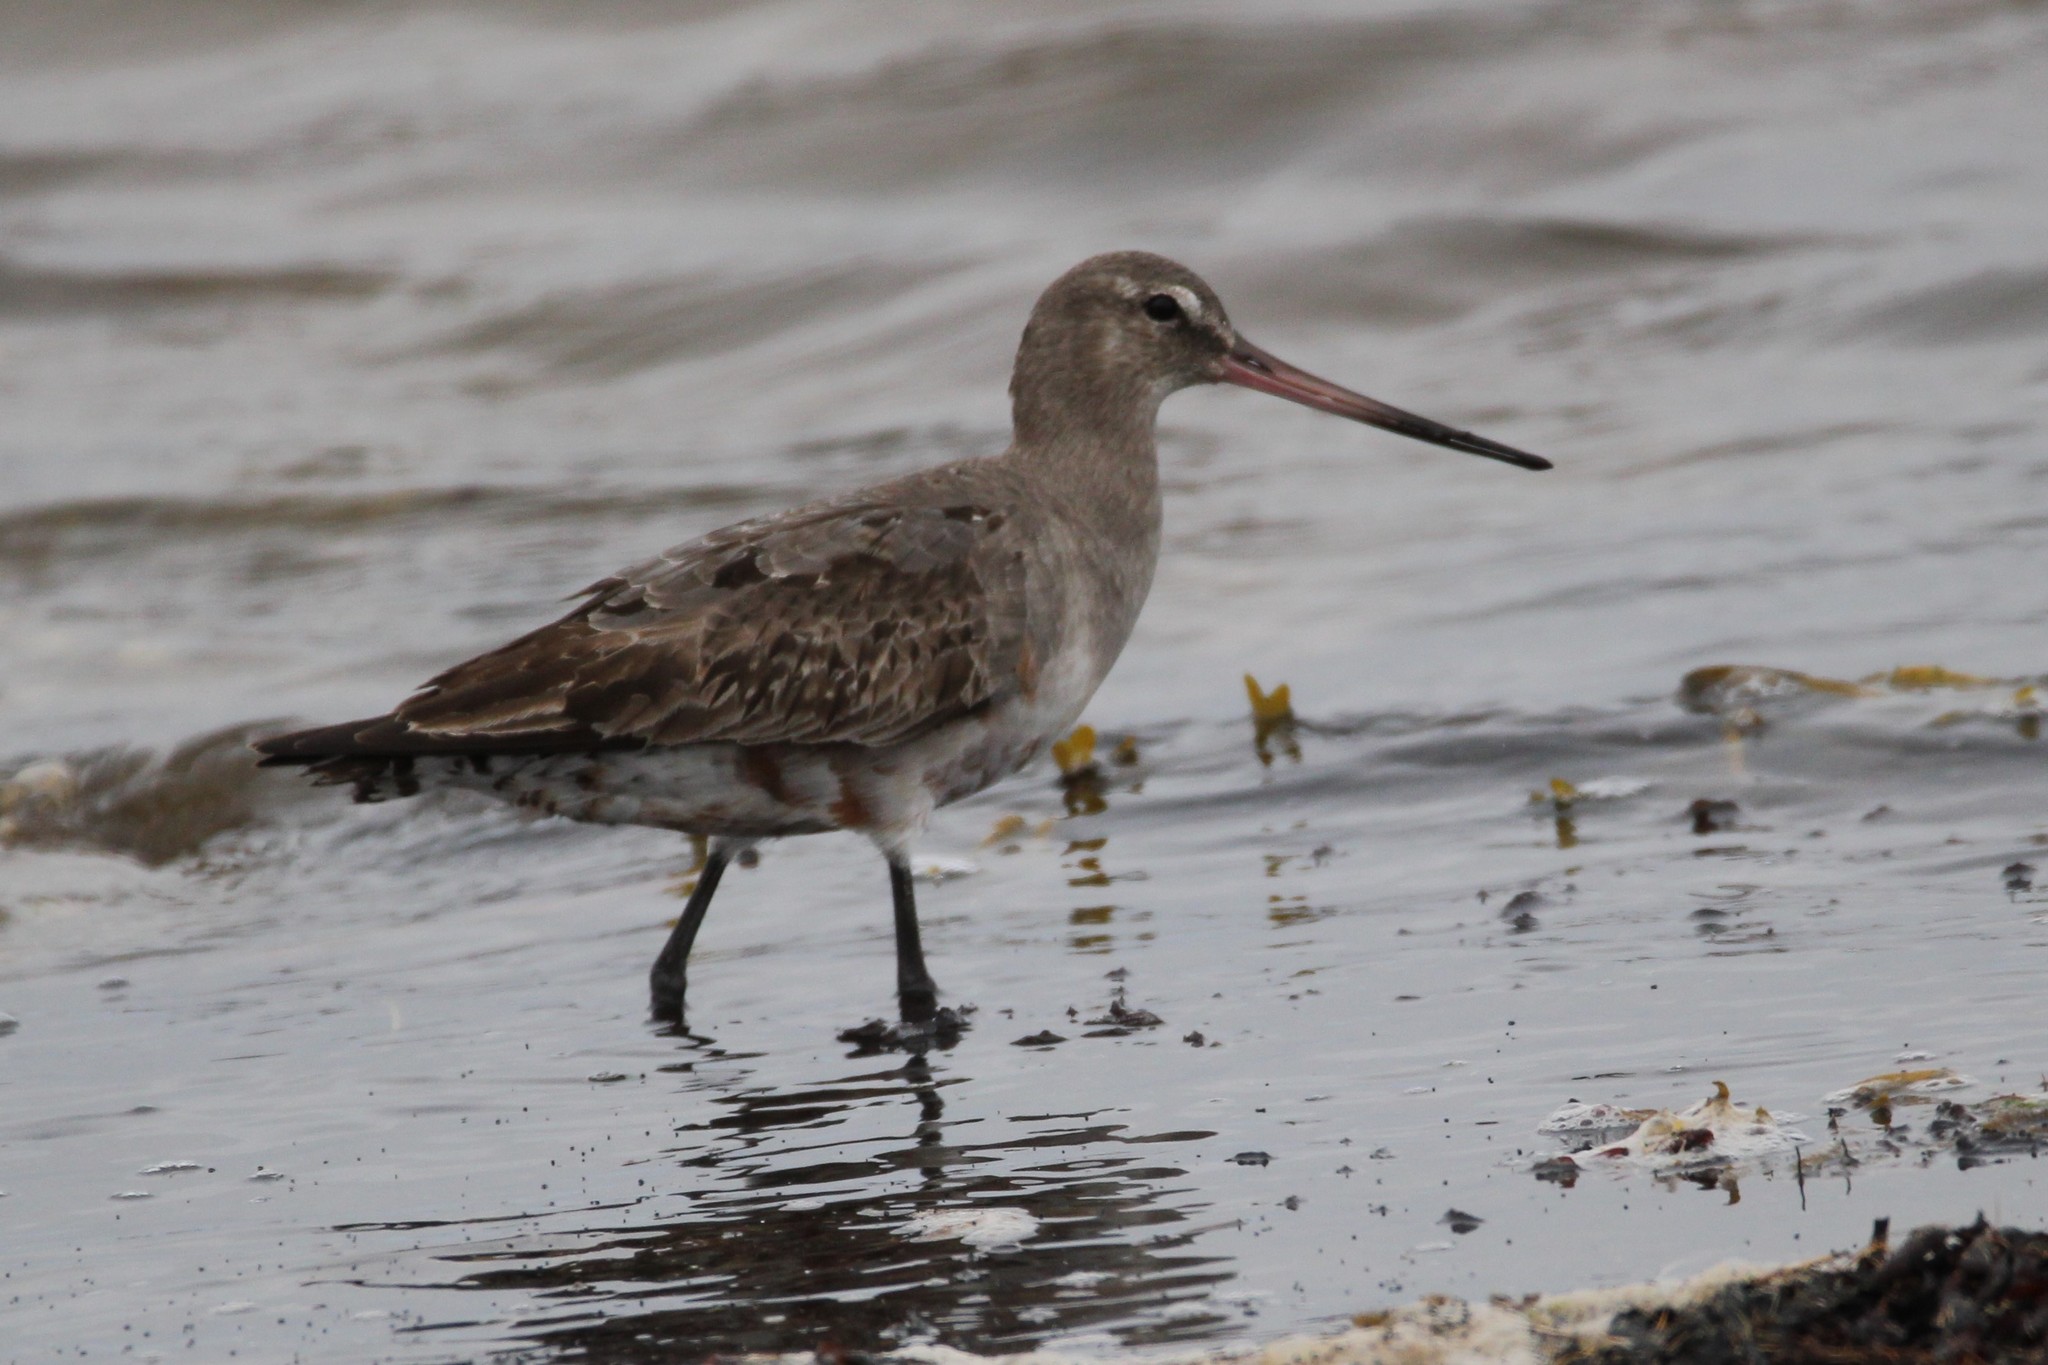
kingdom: Animalia
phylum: Chordata
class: Aves
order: Charadriiformes
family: Scolopacidae
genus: Limosa
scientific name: Limosa haemastica
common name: Hudsonian godwit
